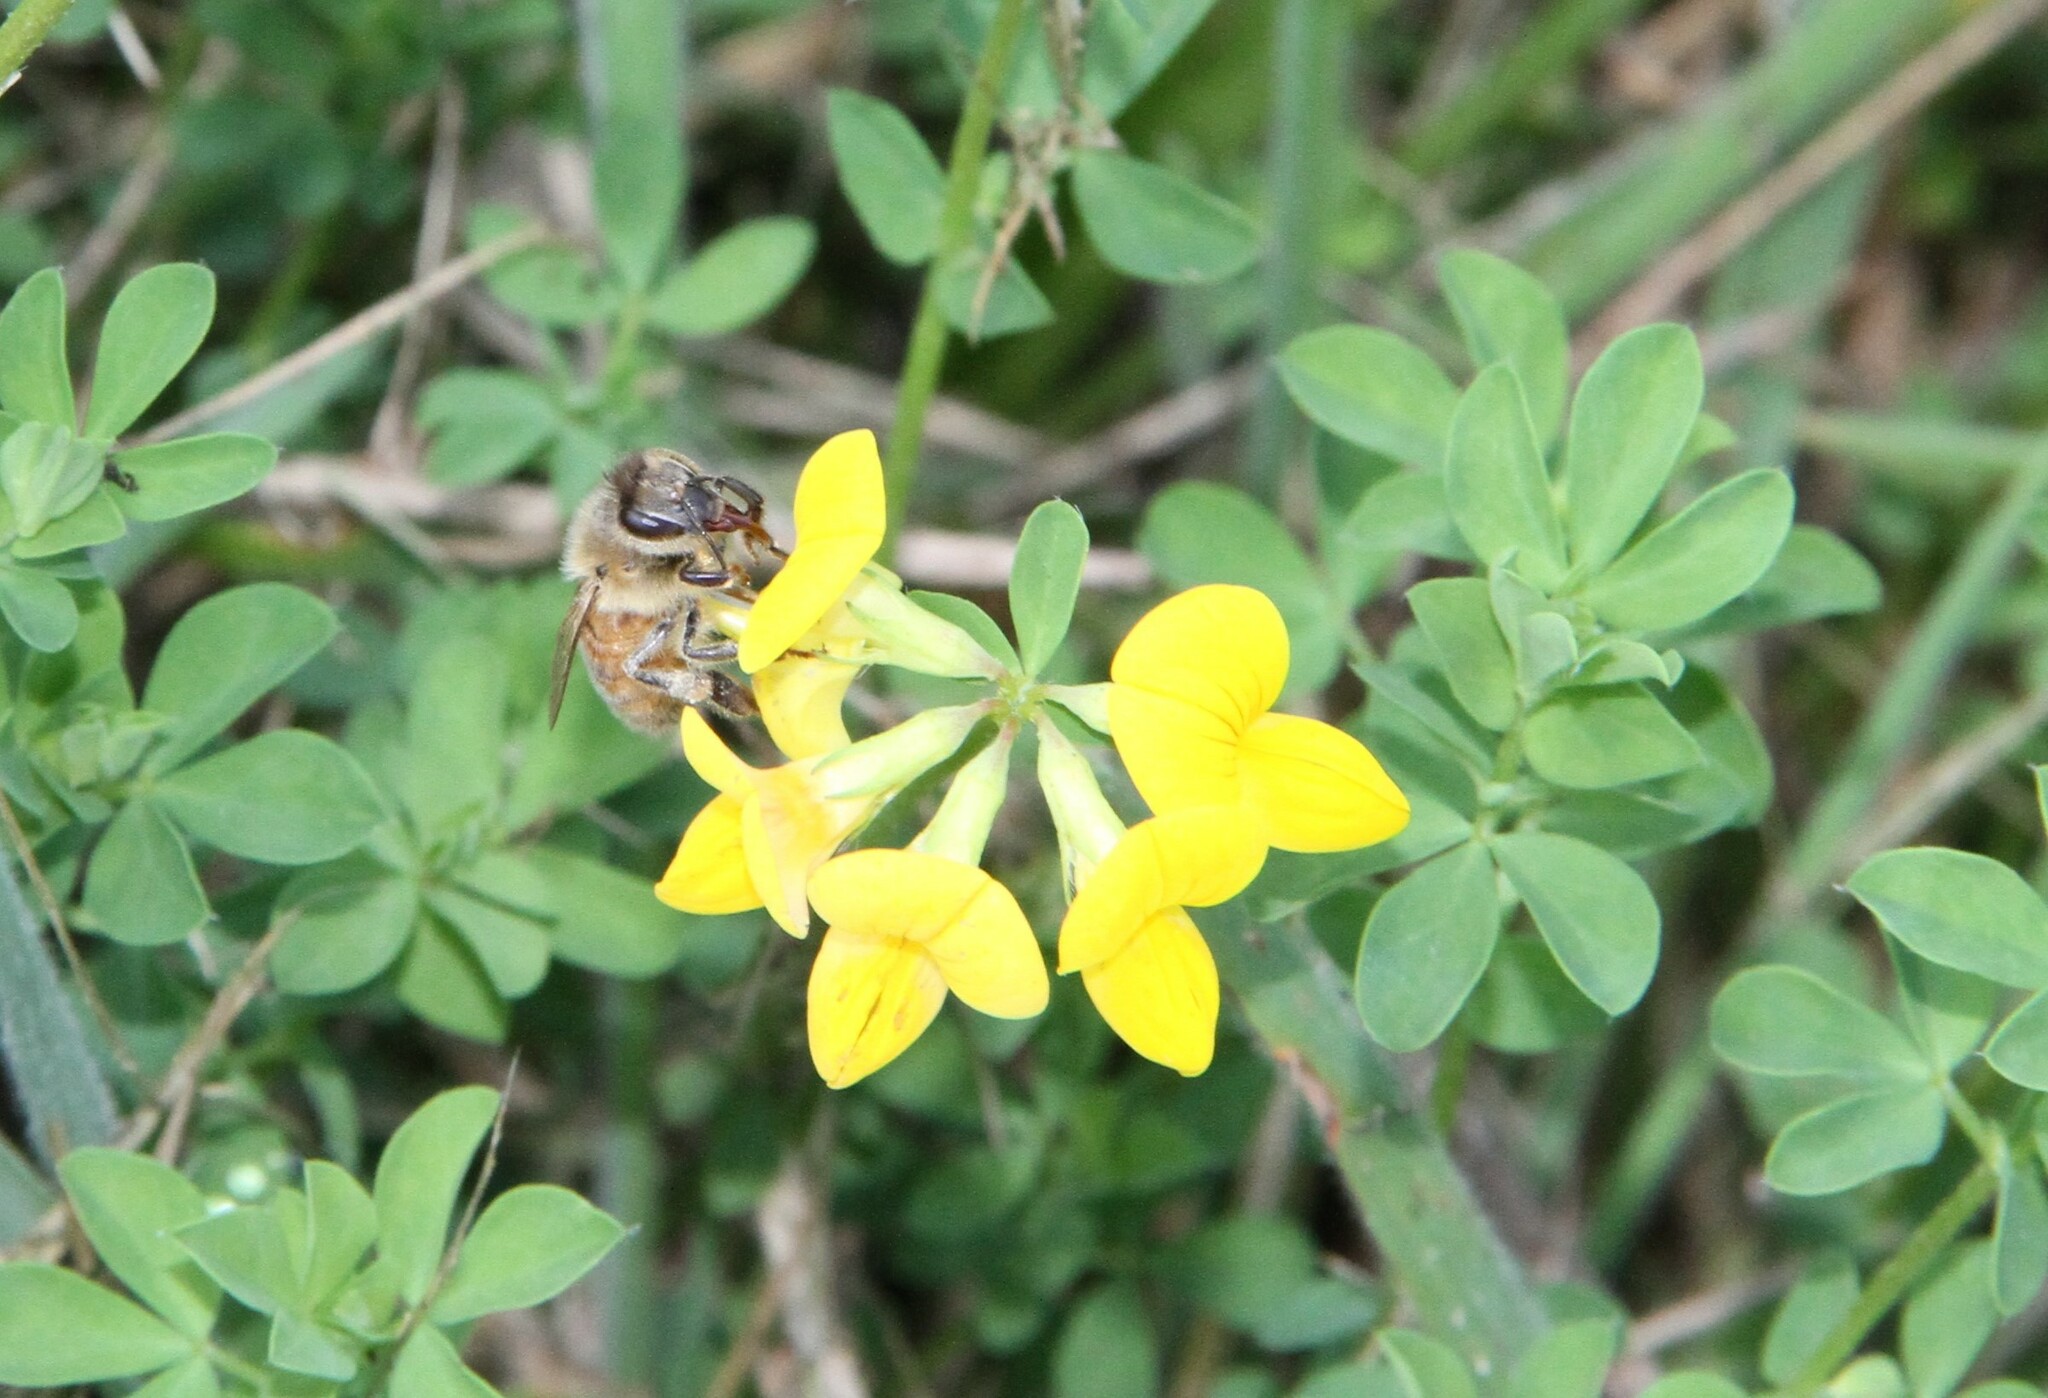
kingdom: Animalia
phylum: Arthropoda
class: Insecta
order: Hymenoptera
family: Apidae
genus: Apis
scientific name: Apis mellifera
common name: Honey bee
